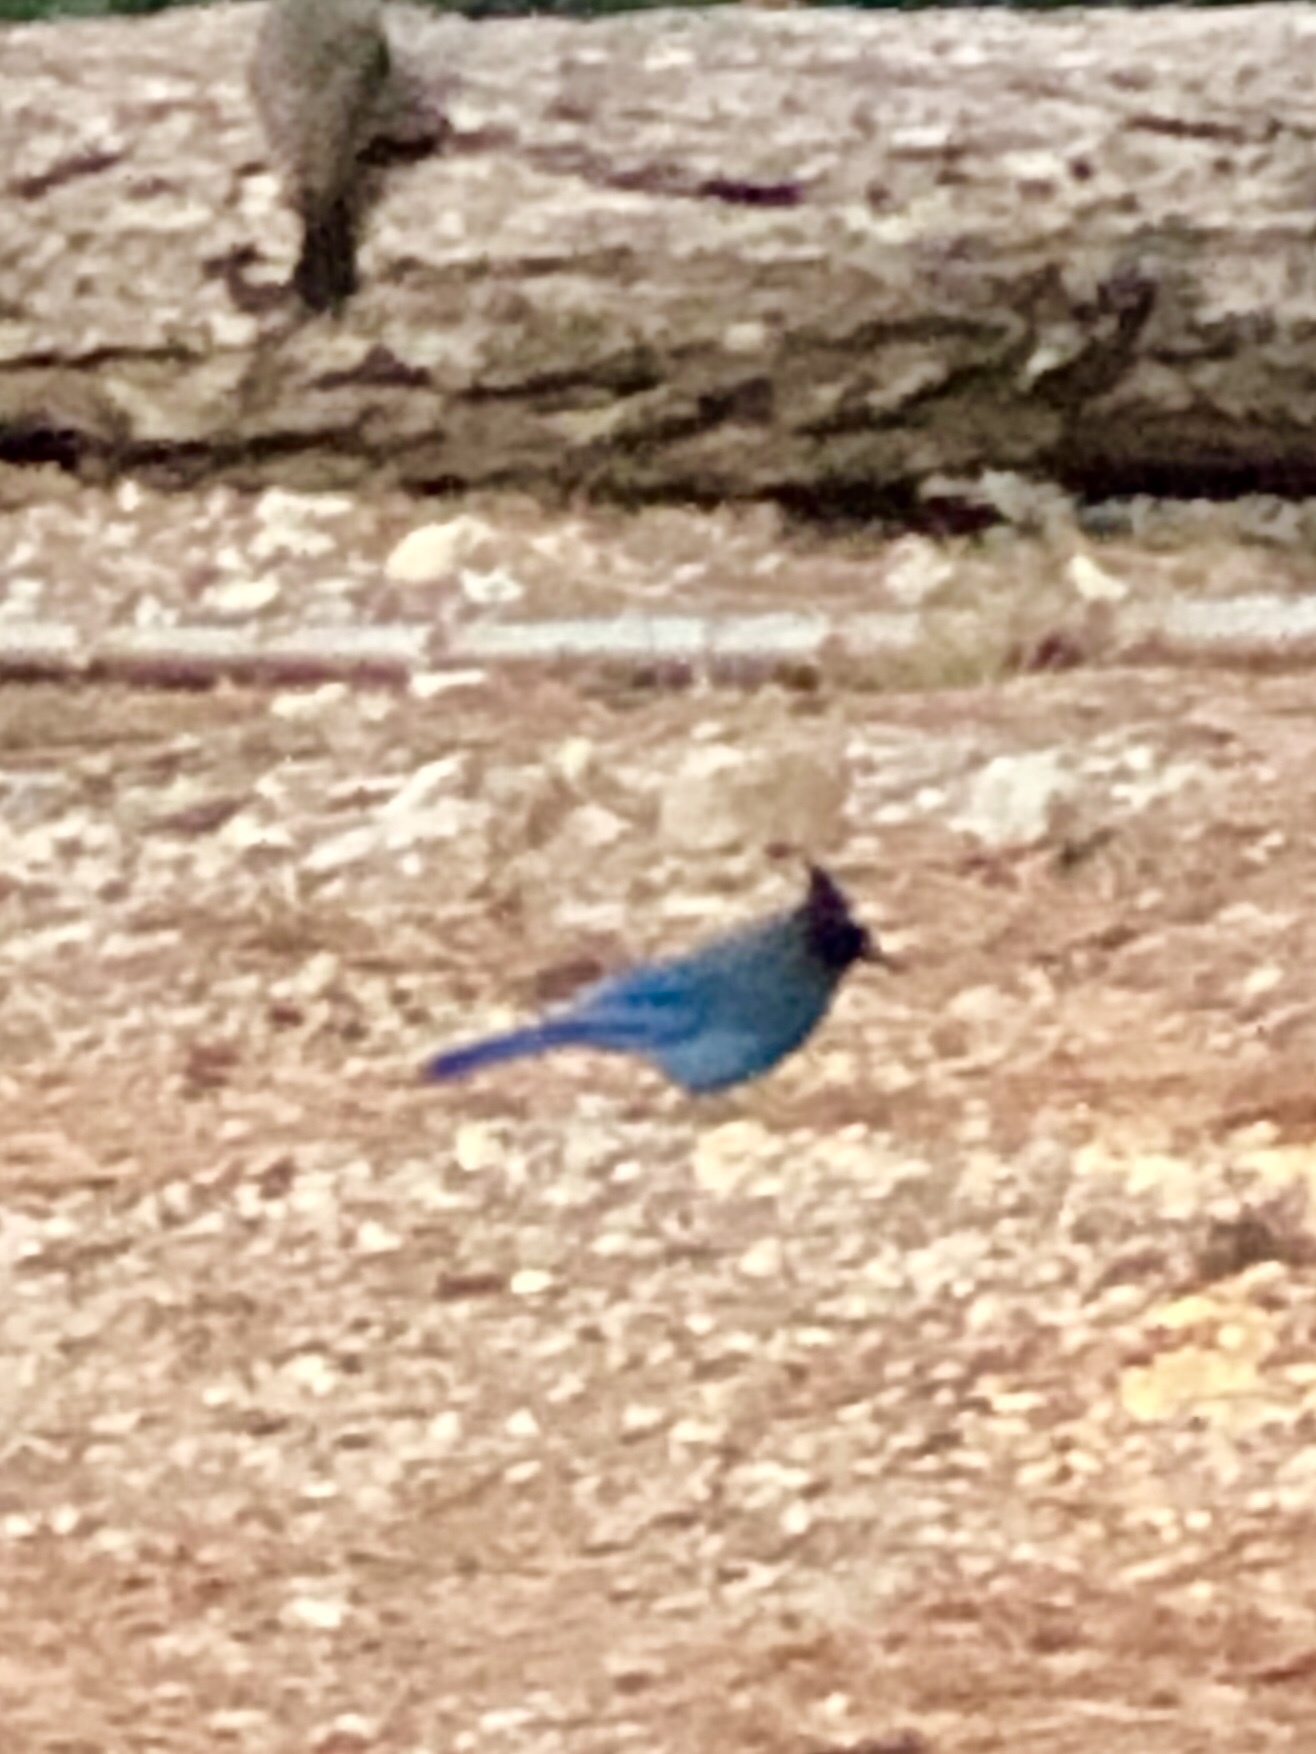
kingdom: Animalia
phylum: Chordata
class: Aves
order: Passeriformes
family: Corvidae
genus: Cyanocitta
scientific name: Cyanocitta stelleri
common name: Steller's jay
